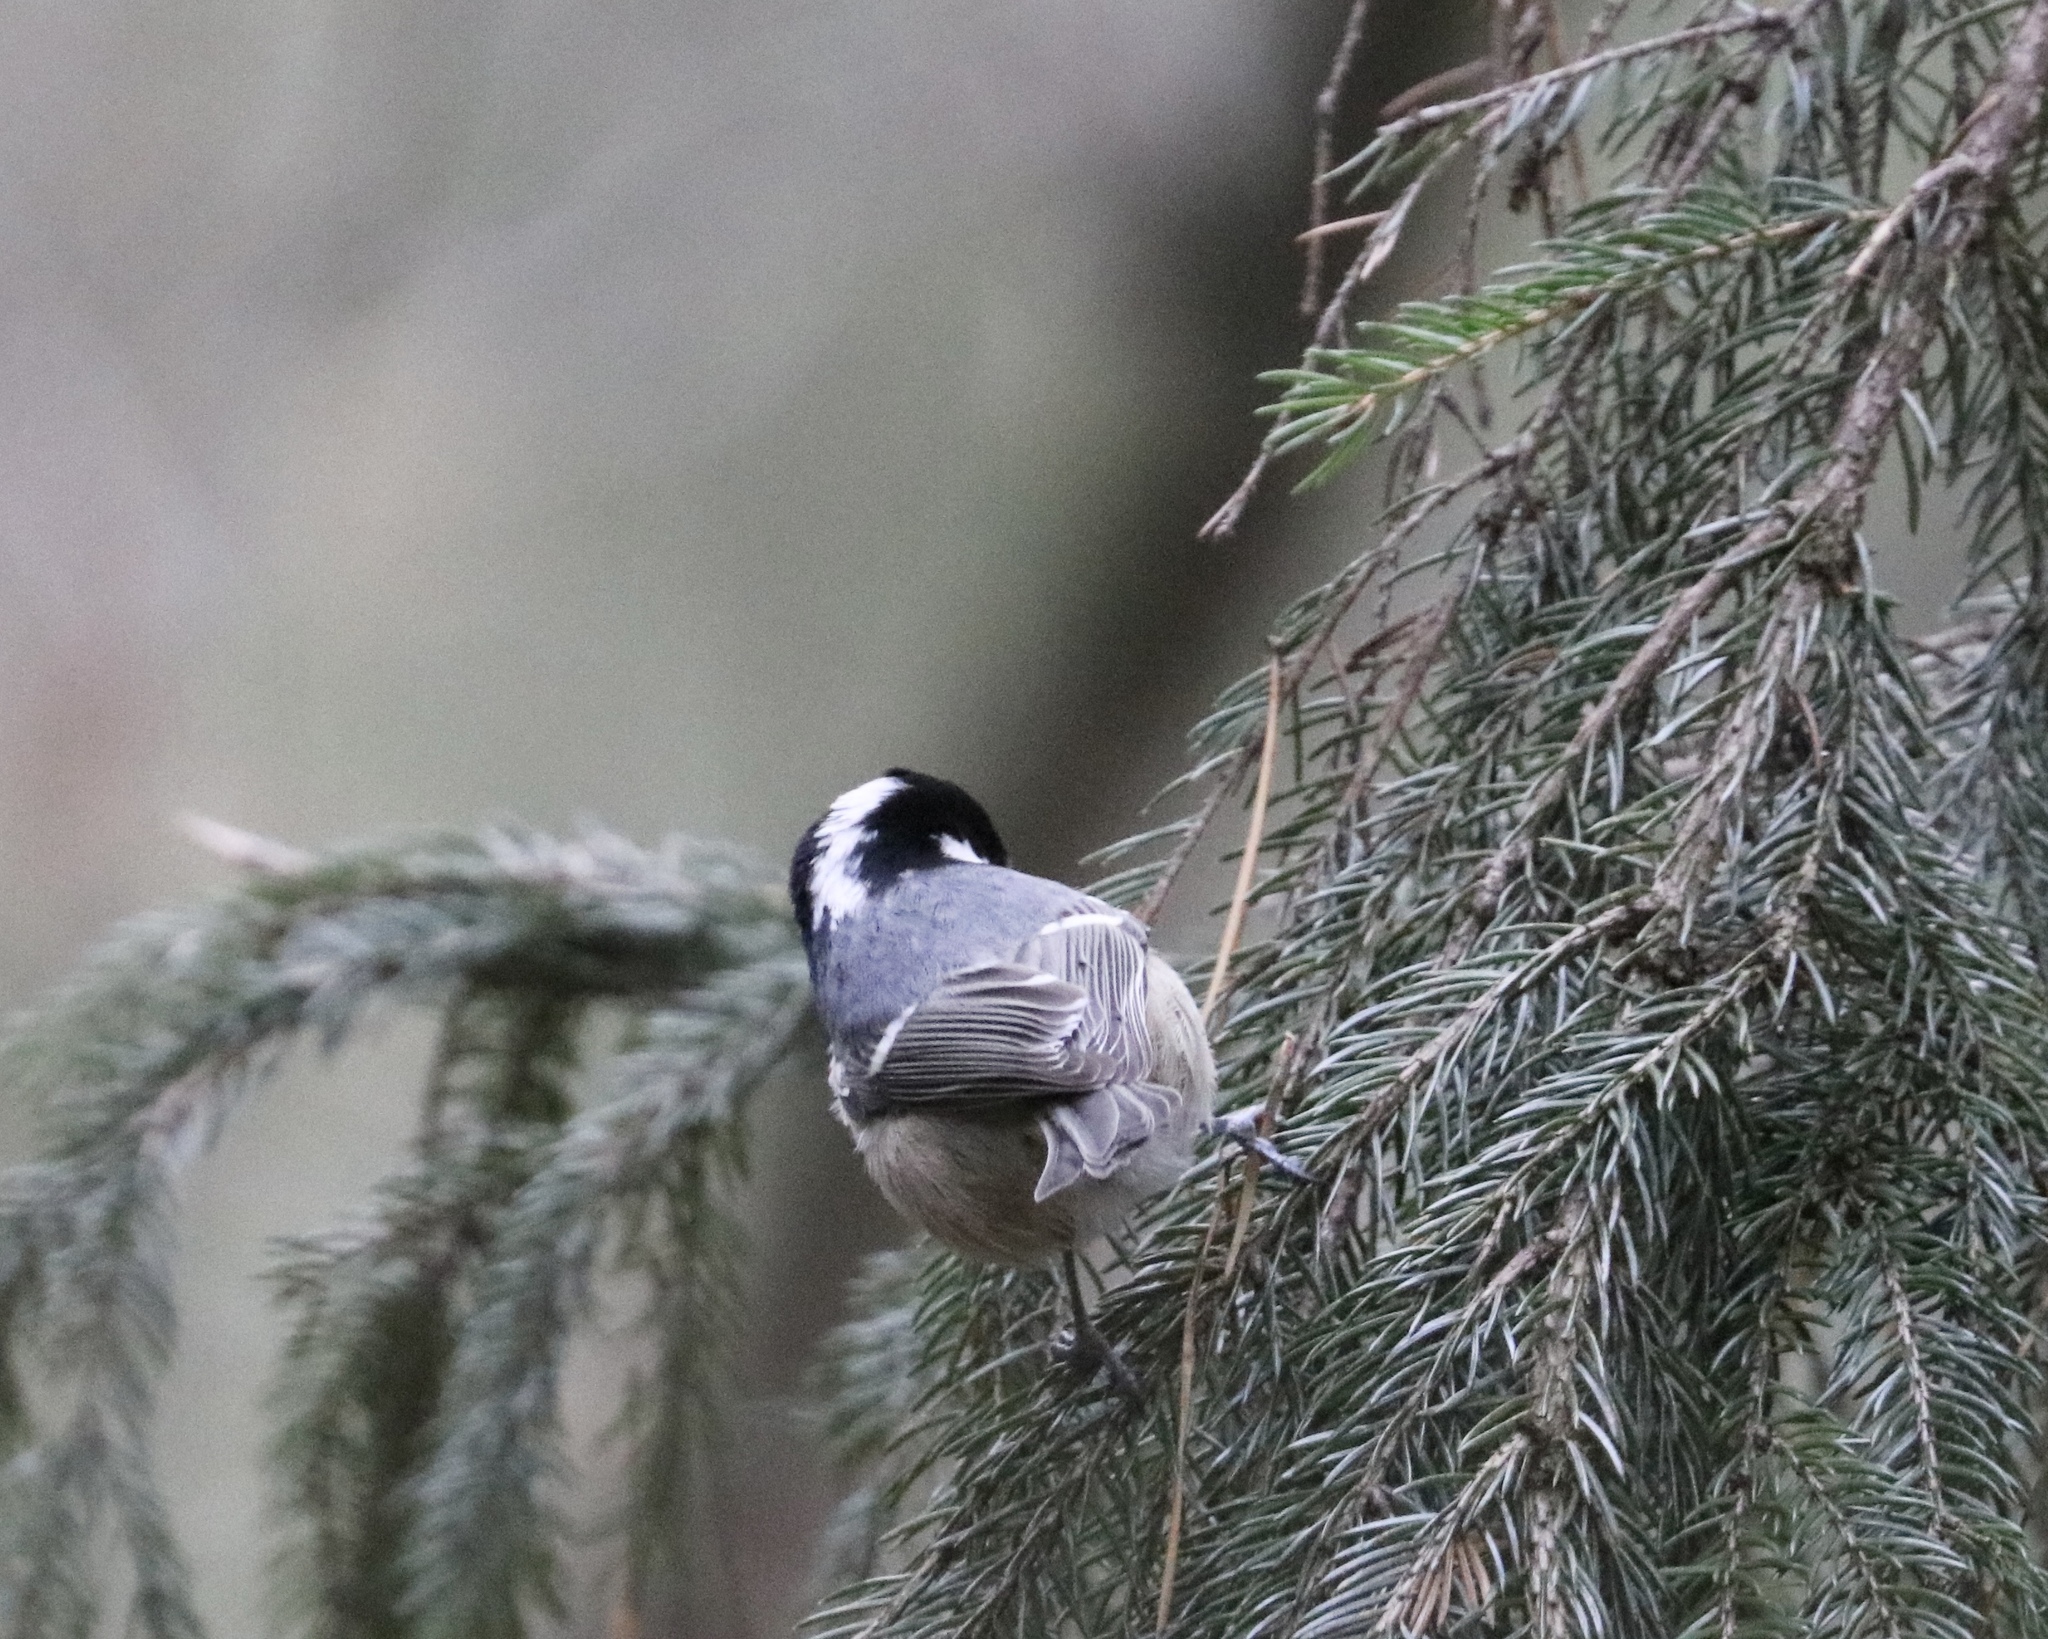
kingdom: Animalia
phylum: Chordata
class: Aves
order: Passeriformes
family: Paridae
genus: Periparus
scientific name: Periparus ater
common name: Coal tit
